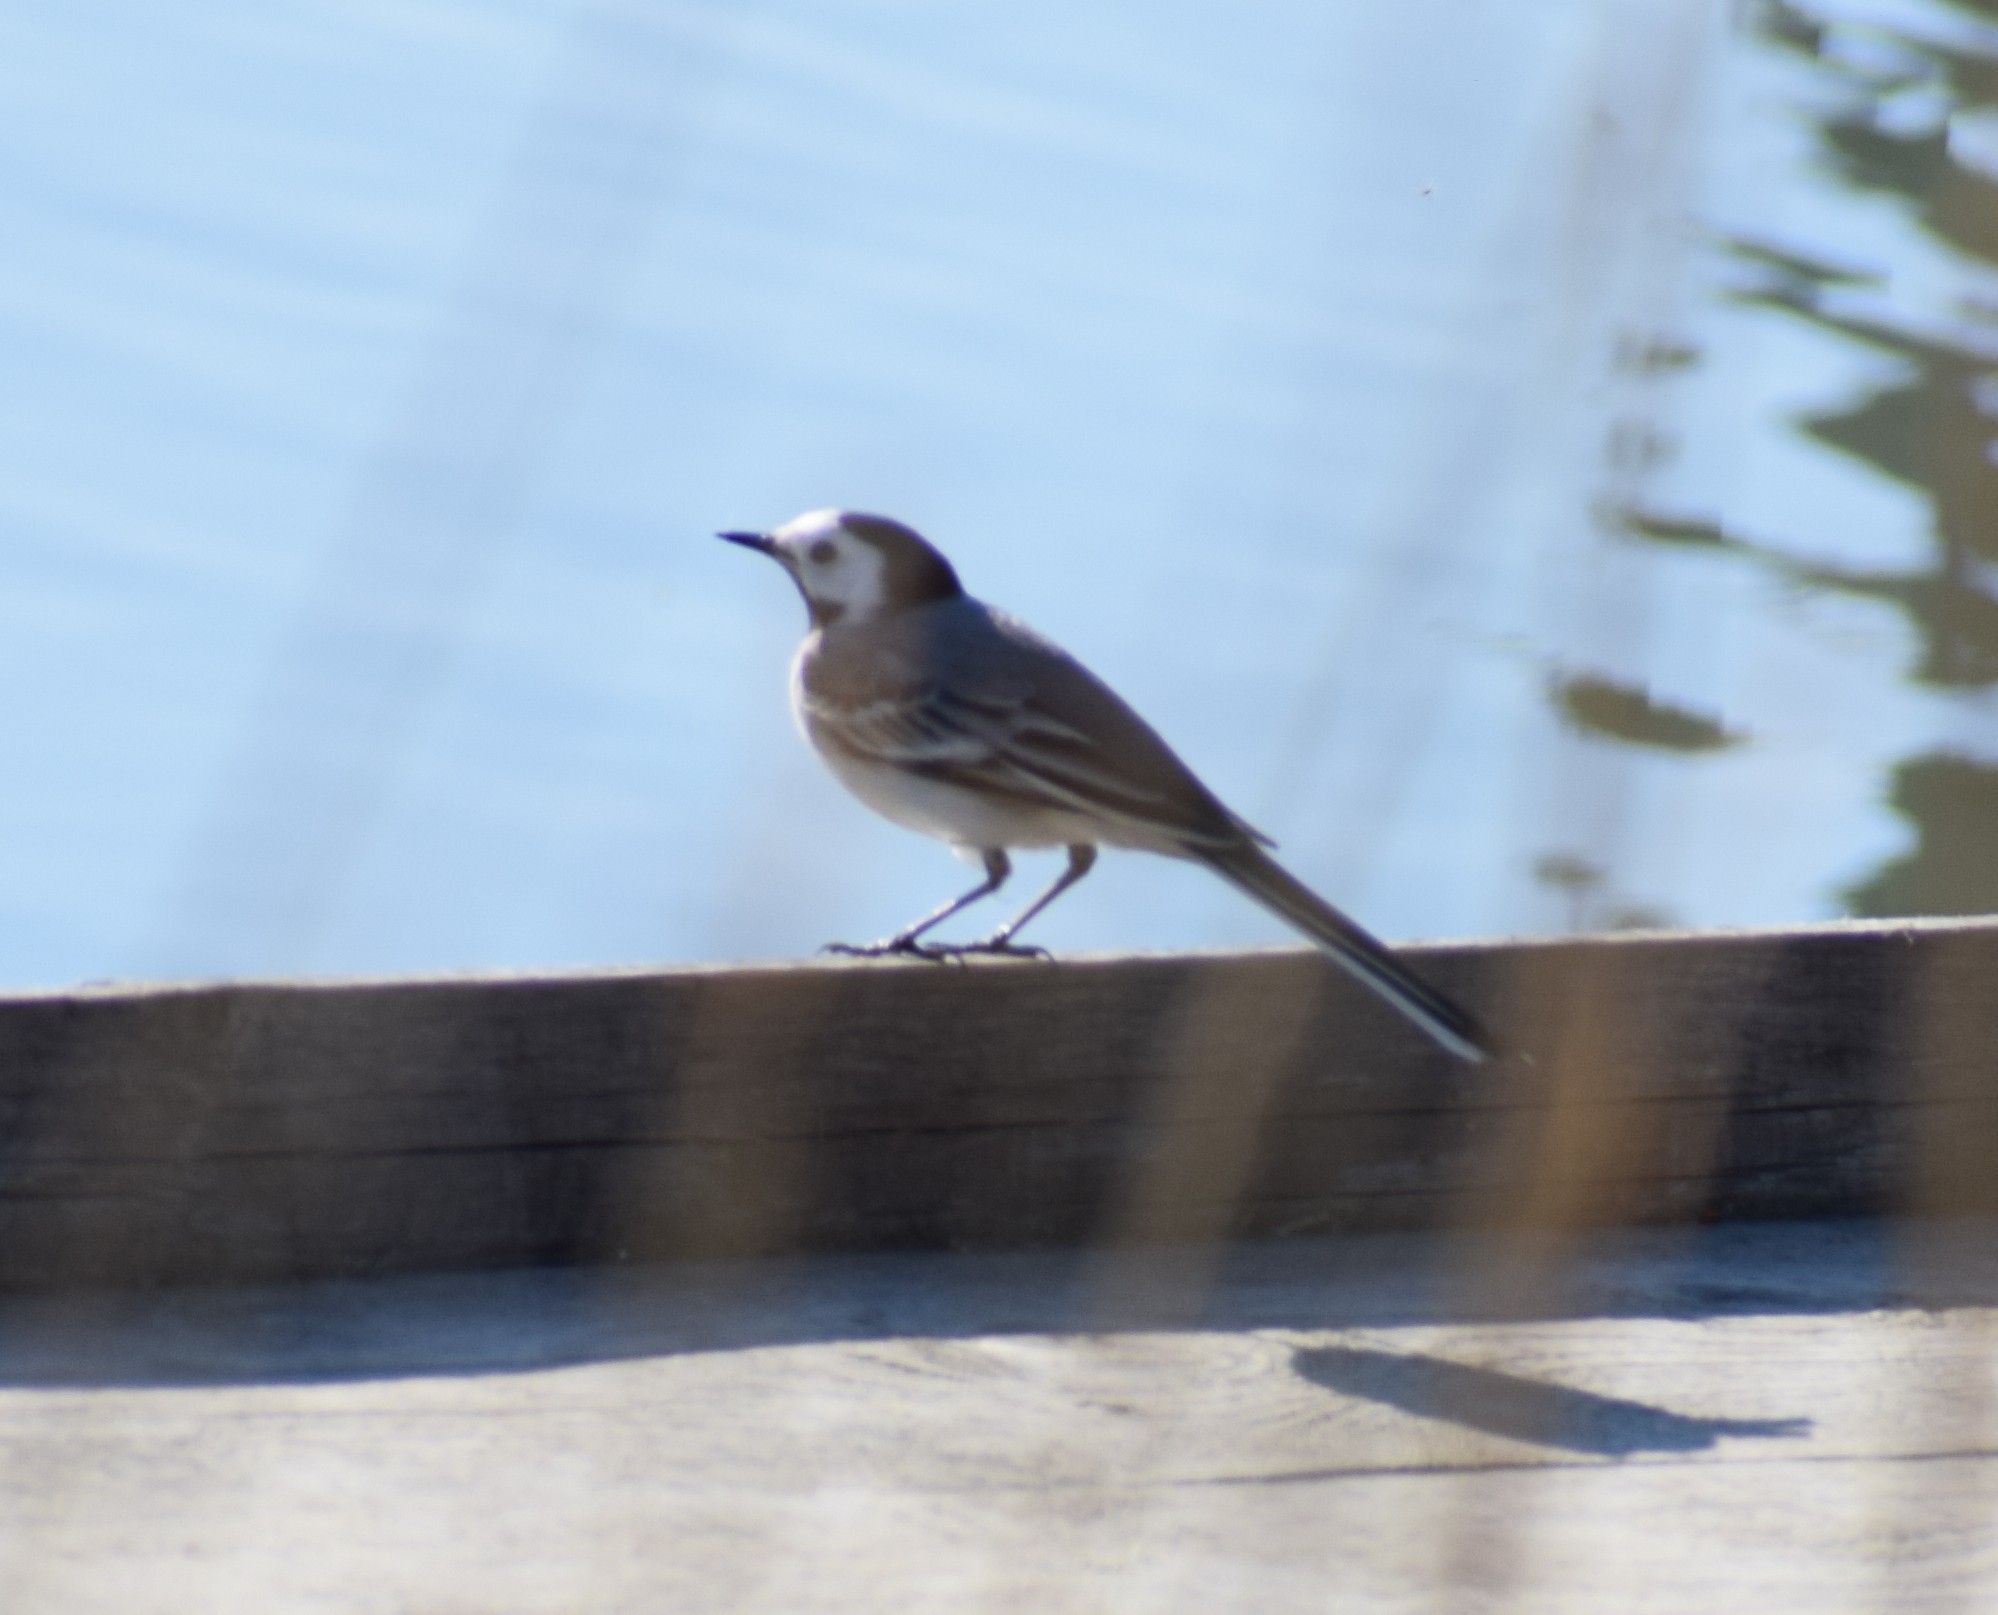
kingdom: Animalia
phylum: Chordata
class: Aves
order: Passeriformes
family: Motacillidae
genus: Motacilla
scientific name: Motacilla alba
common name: White wagtail
